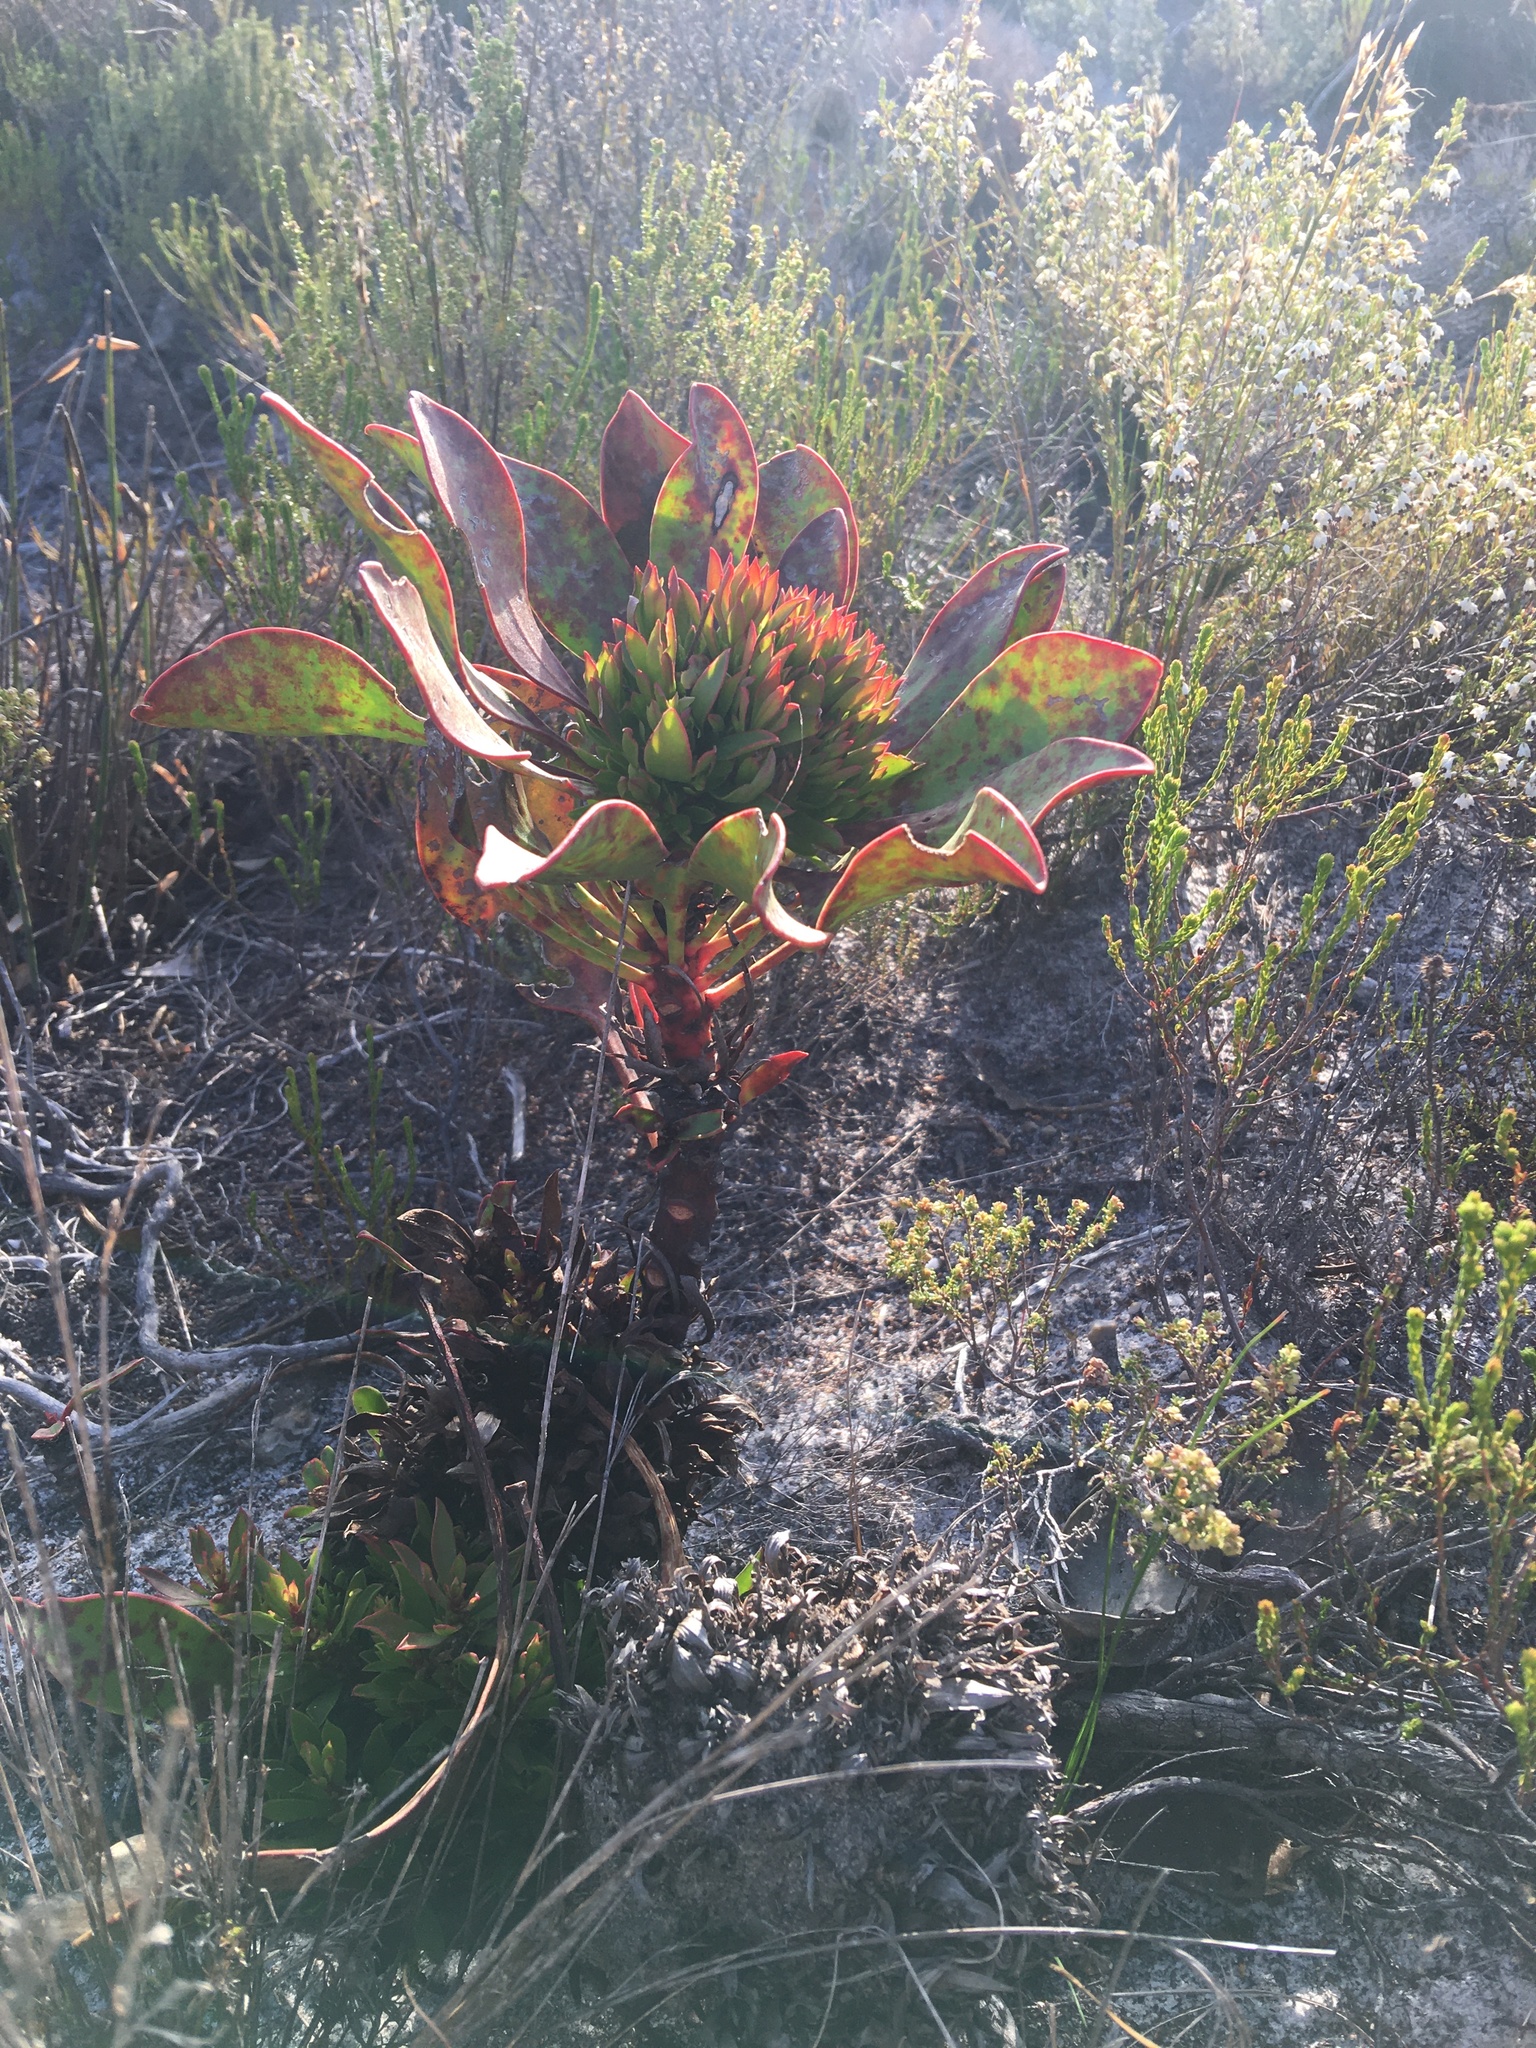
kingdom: Plantae
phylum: Tracheophyta
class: Magnoliopsida
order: Proteales
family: Proteaceae
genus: Protea
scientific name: Protea cynaroides
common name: King protea
